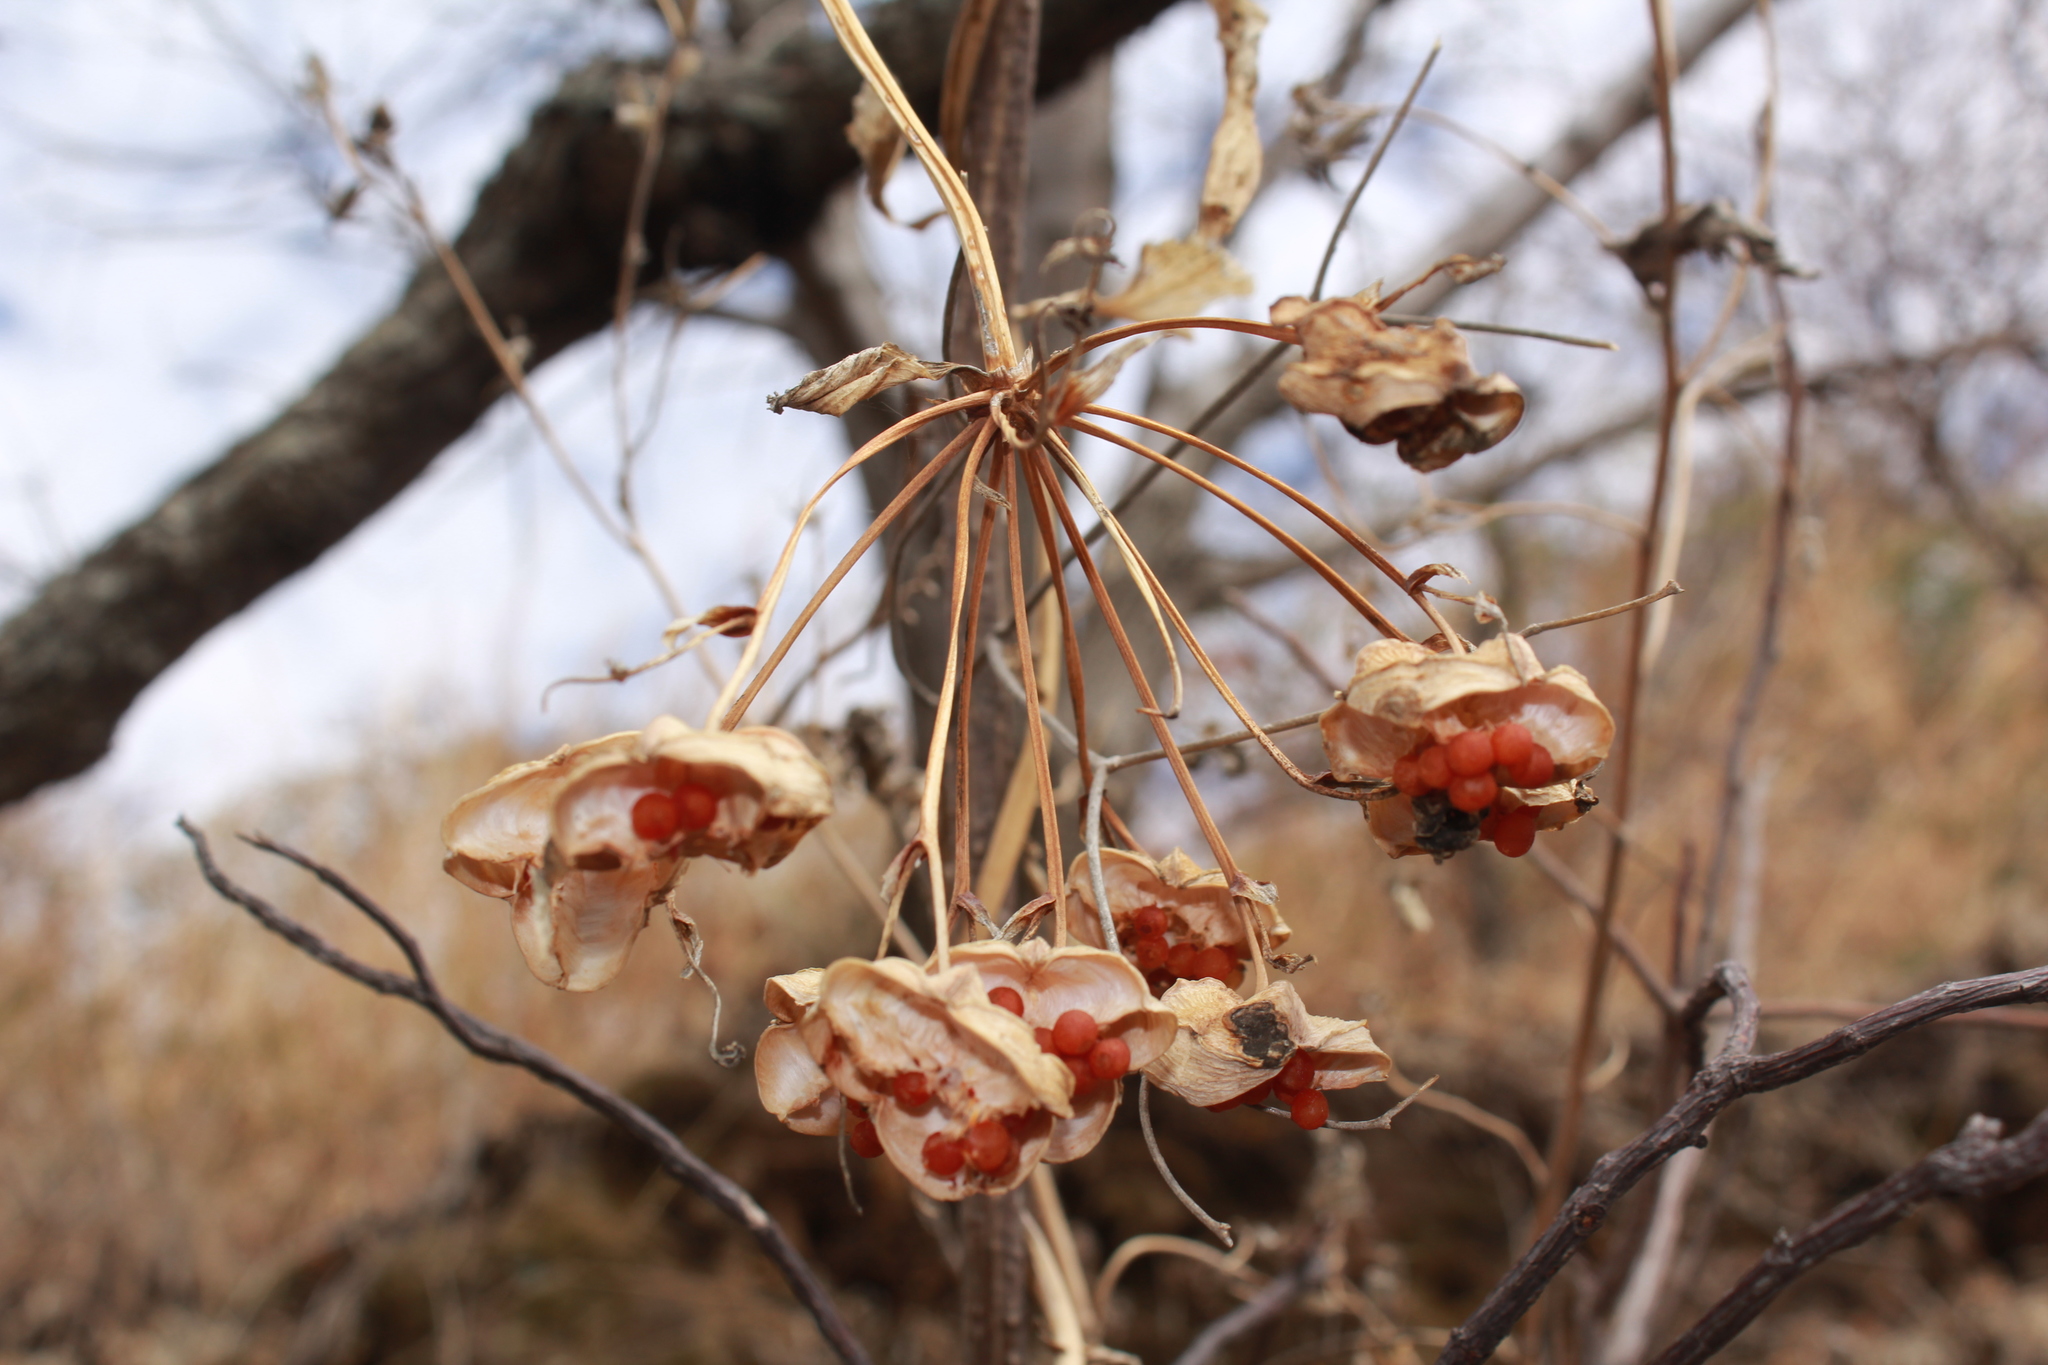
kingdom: Plantae
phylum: Tracheophyta
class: Liliopsida
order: Liliales
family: Alstroemeriaceae
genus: Bomarea
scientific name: Bomarea edulis
